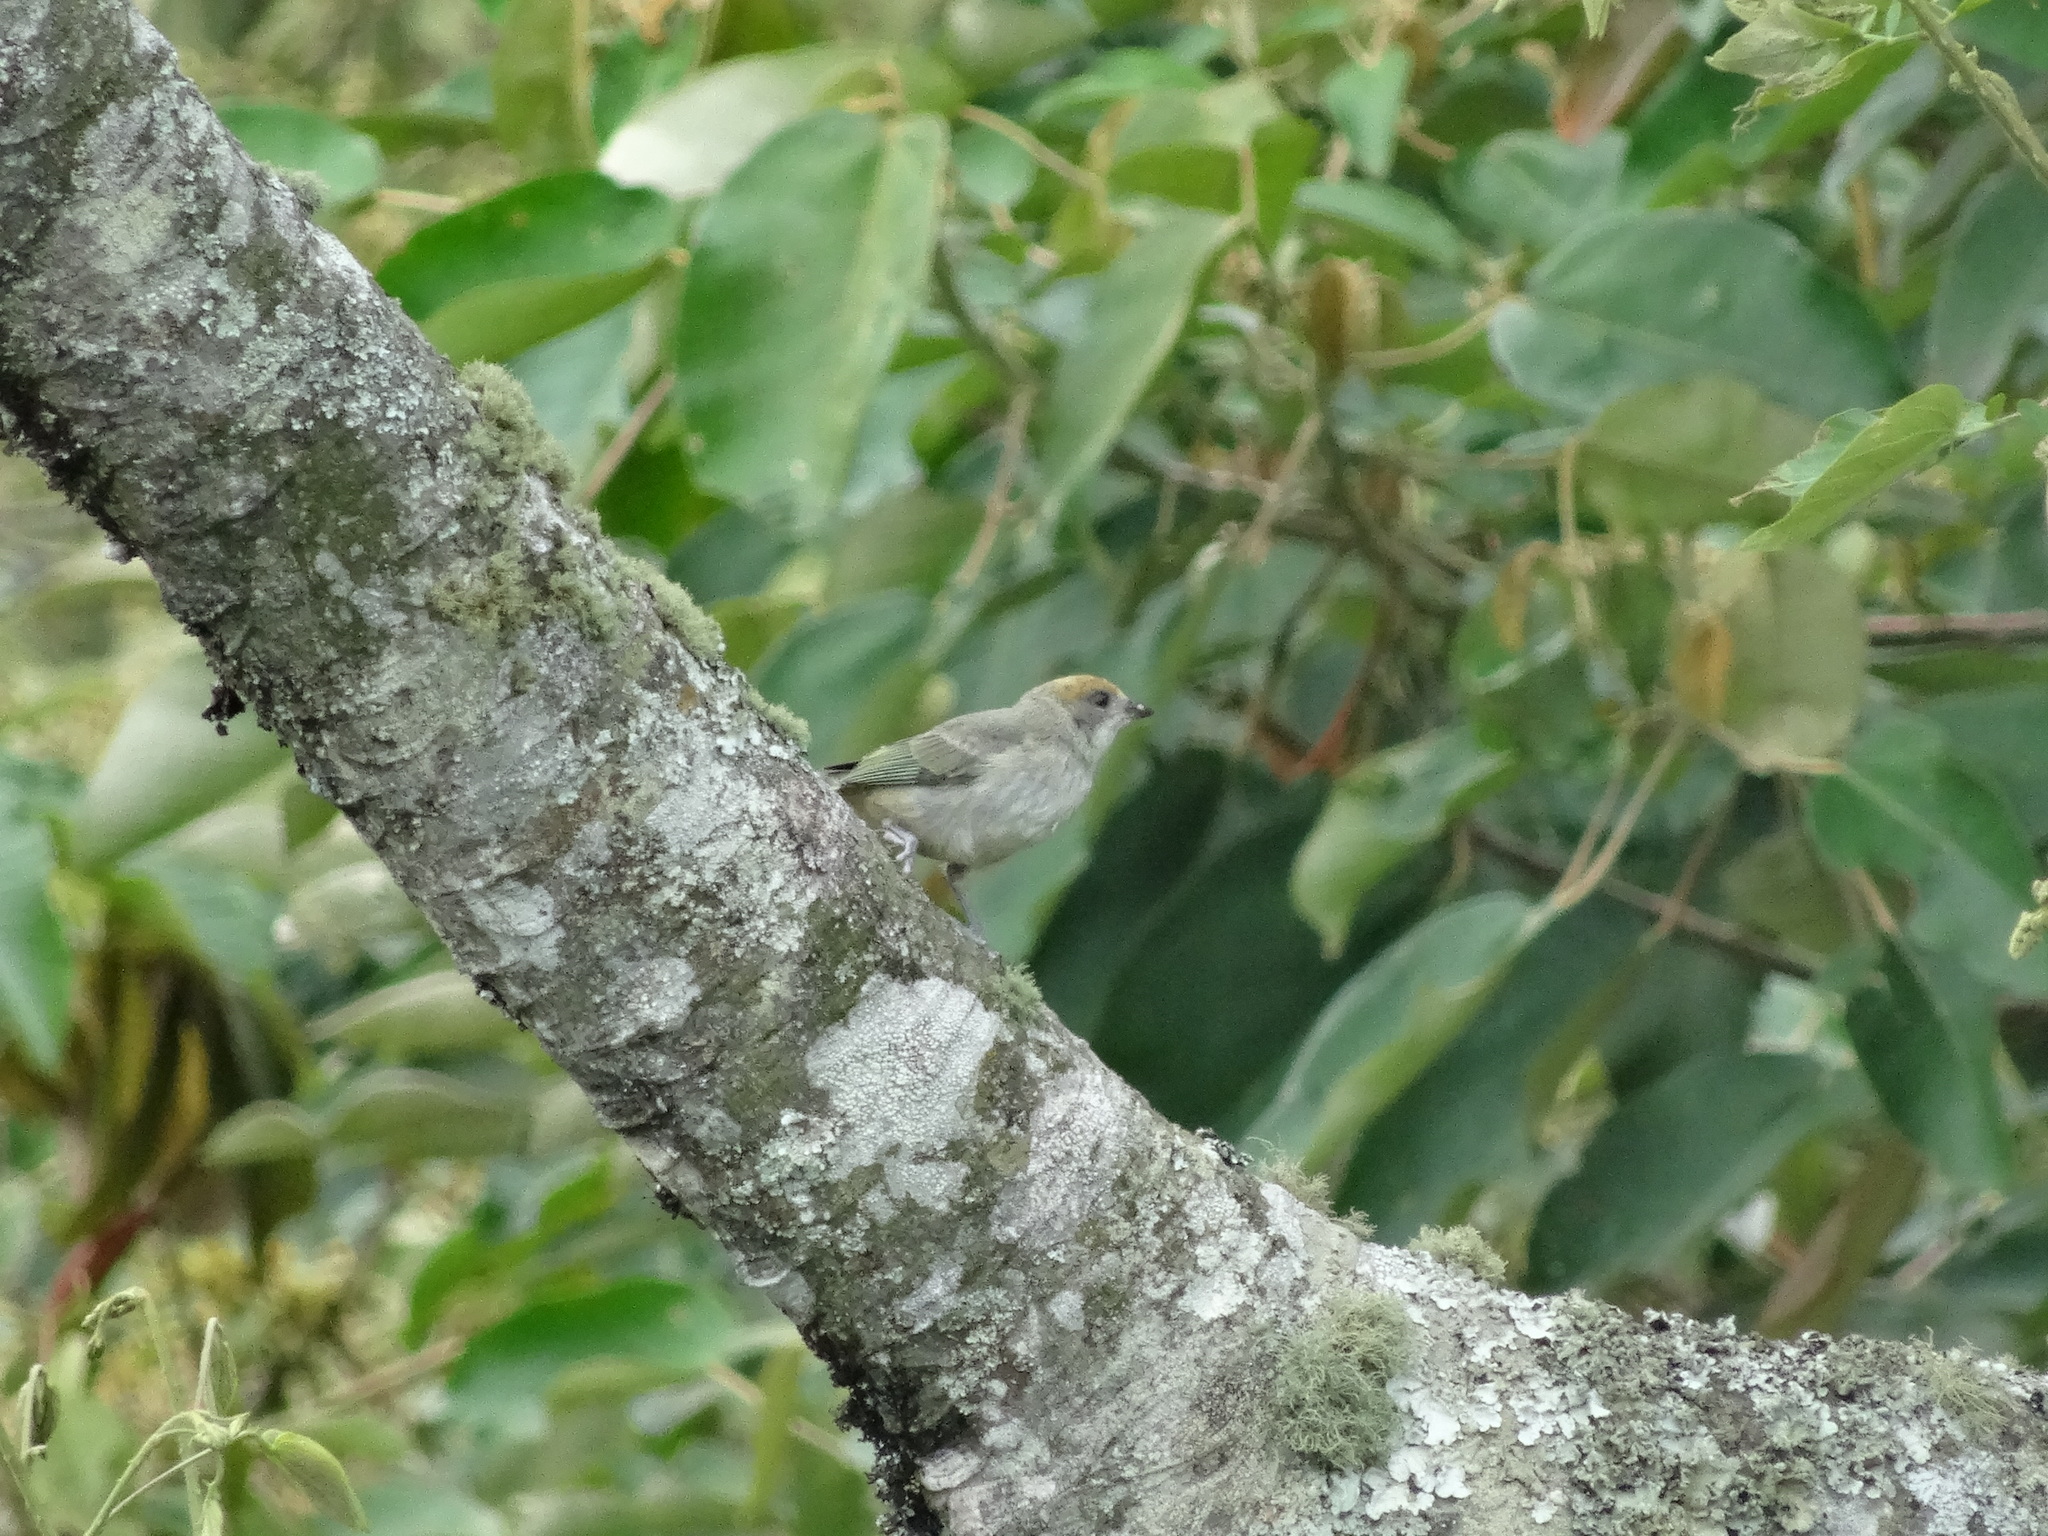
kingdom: Animalia
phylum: Chordata
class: Aves
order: Passeriformes
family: Thraupidae
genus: Stilpnia
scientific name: Stilpnia vitriolina
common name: Scrub tanager
